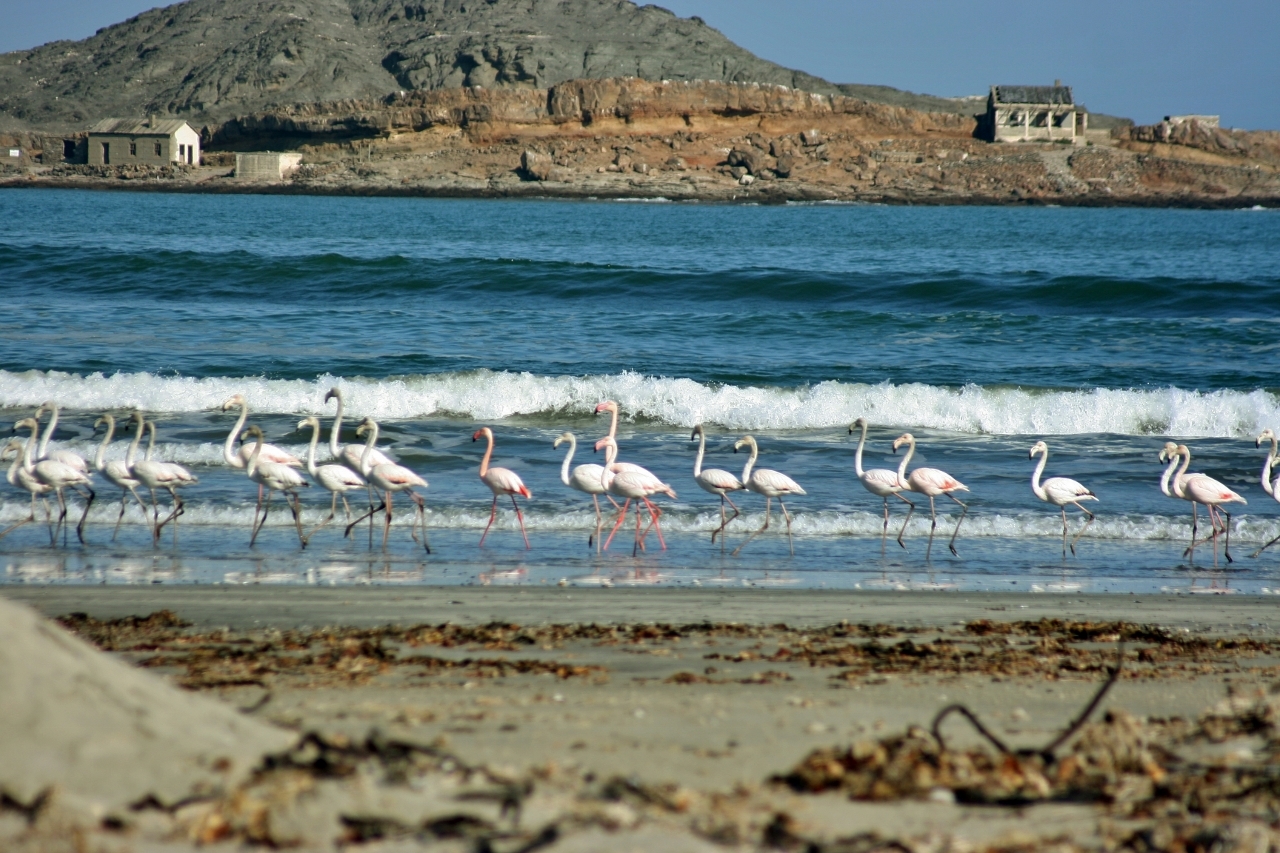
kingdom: Animalia
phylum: Chordata
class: Aves
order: Phoenicopteriformes
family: Phoenicopteridae
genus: Phoenicopterus
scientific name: Phoenicopterus roseus
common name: Greater flamingo
